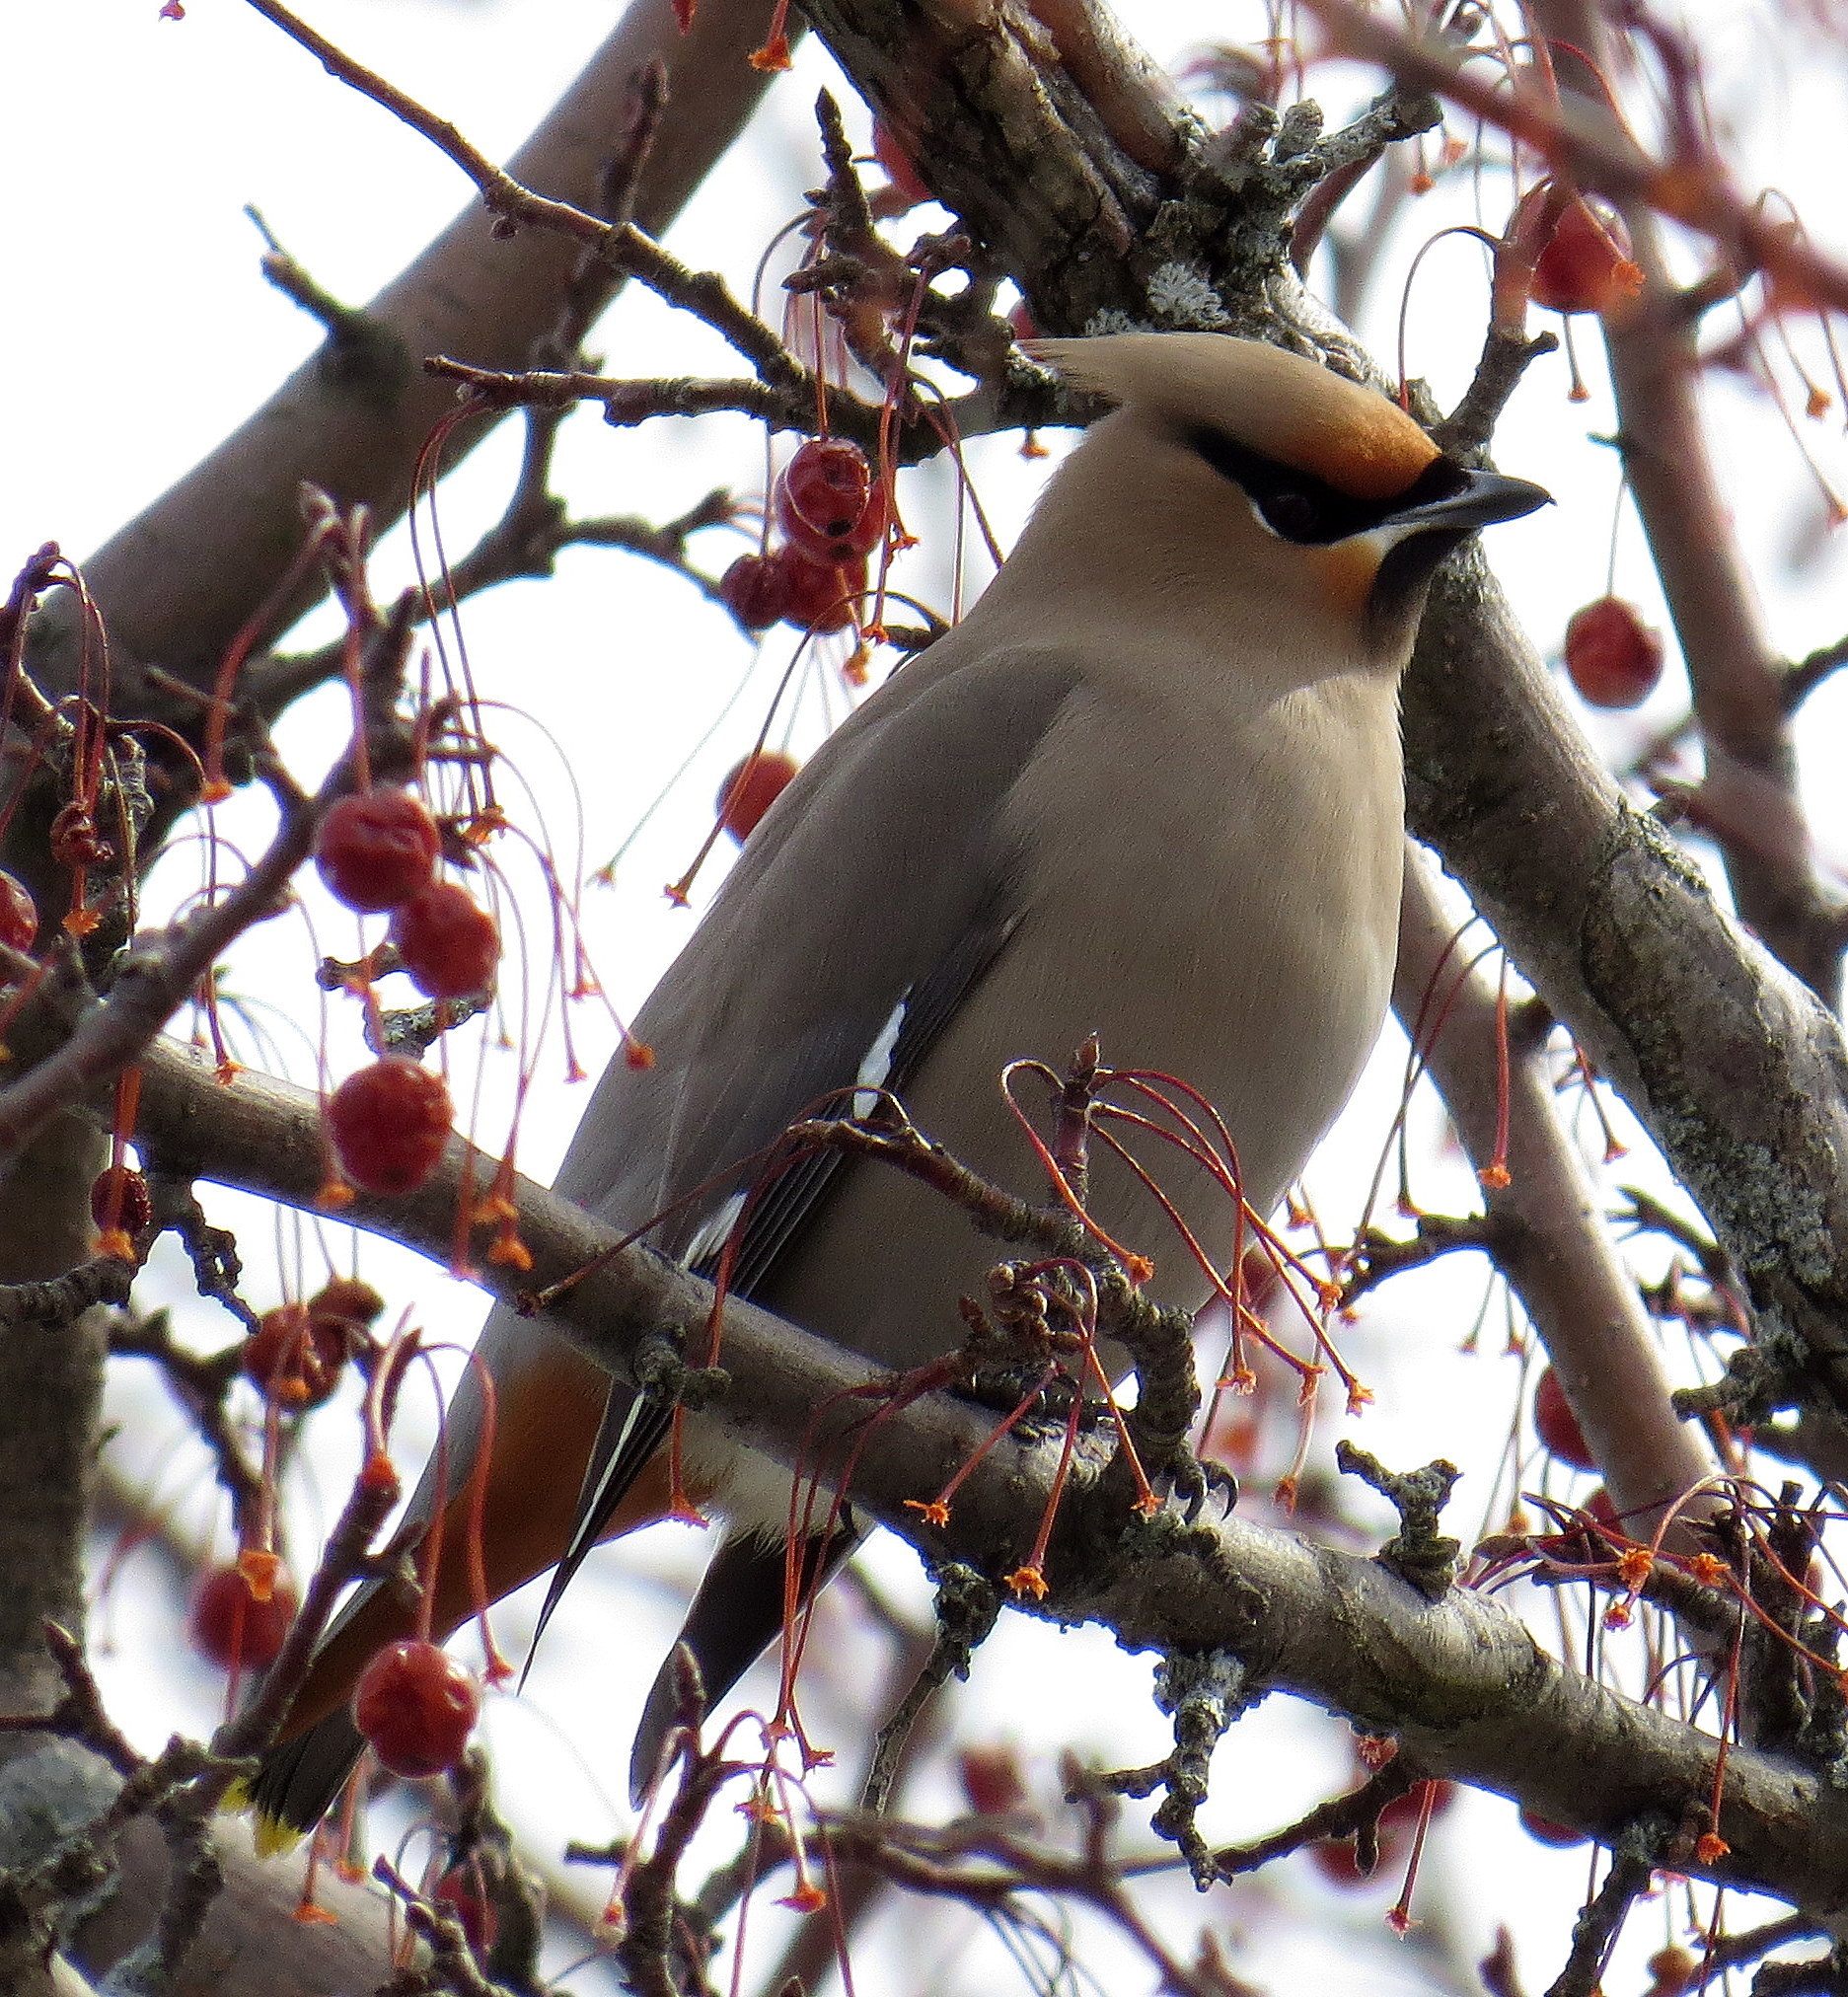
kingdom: Animalia
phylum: Chordata
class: Aves
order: Passeriformes
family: Bombycillidae
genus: Bombycilla
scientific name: Bombycilla garrulus
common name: Bohemian waxwing
